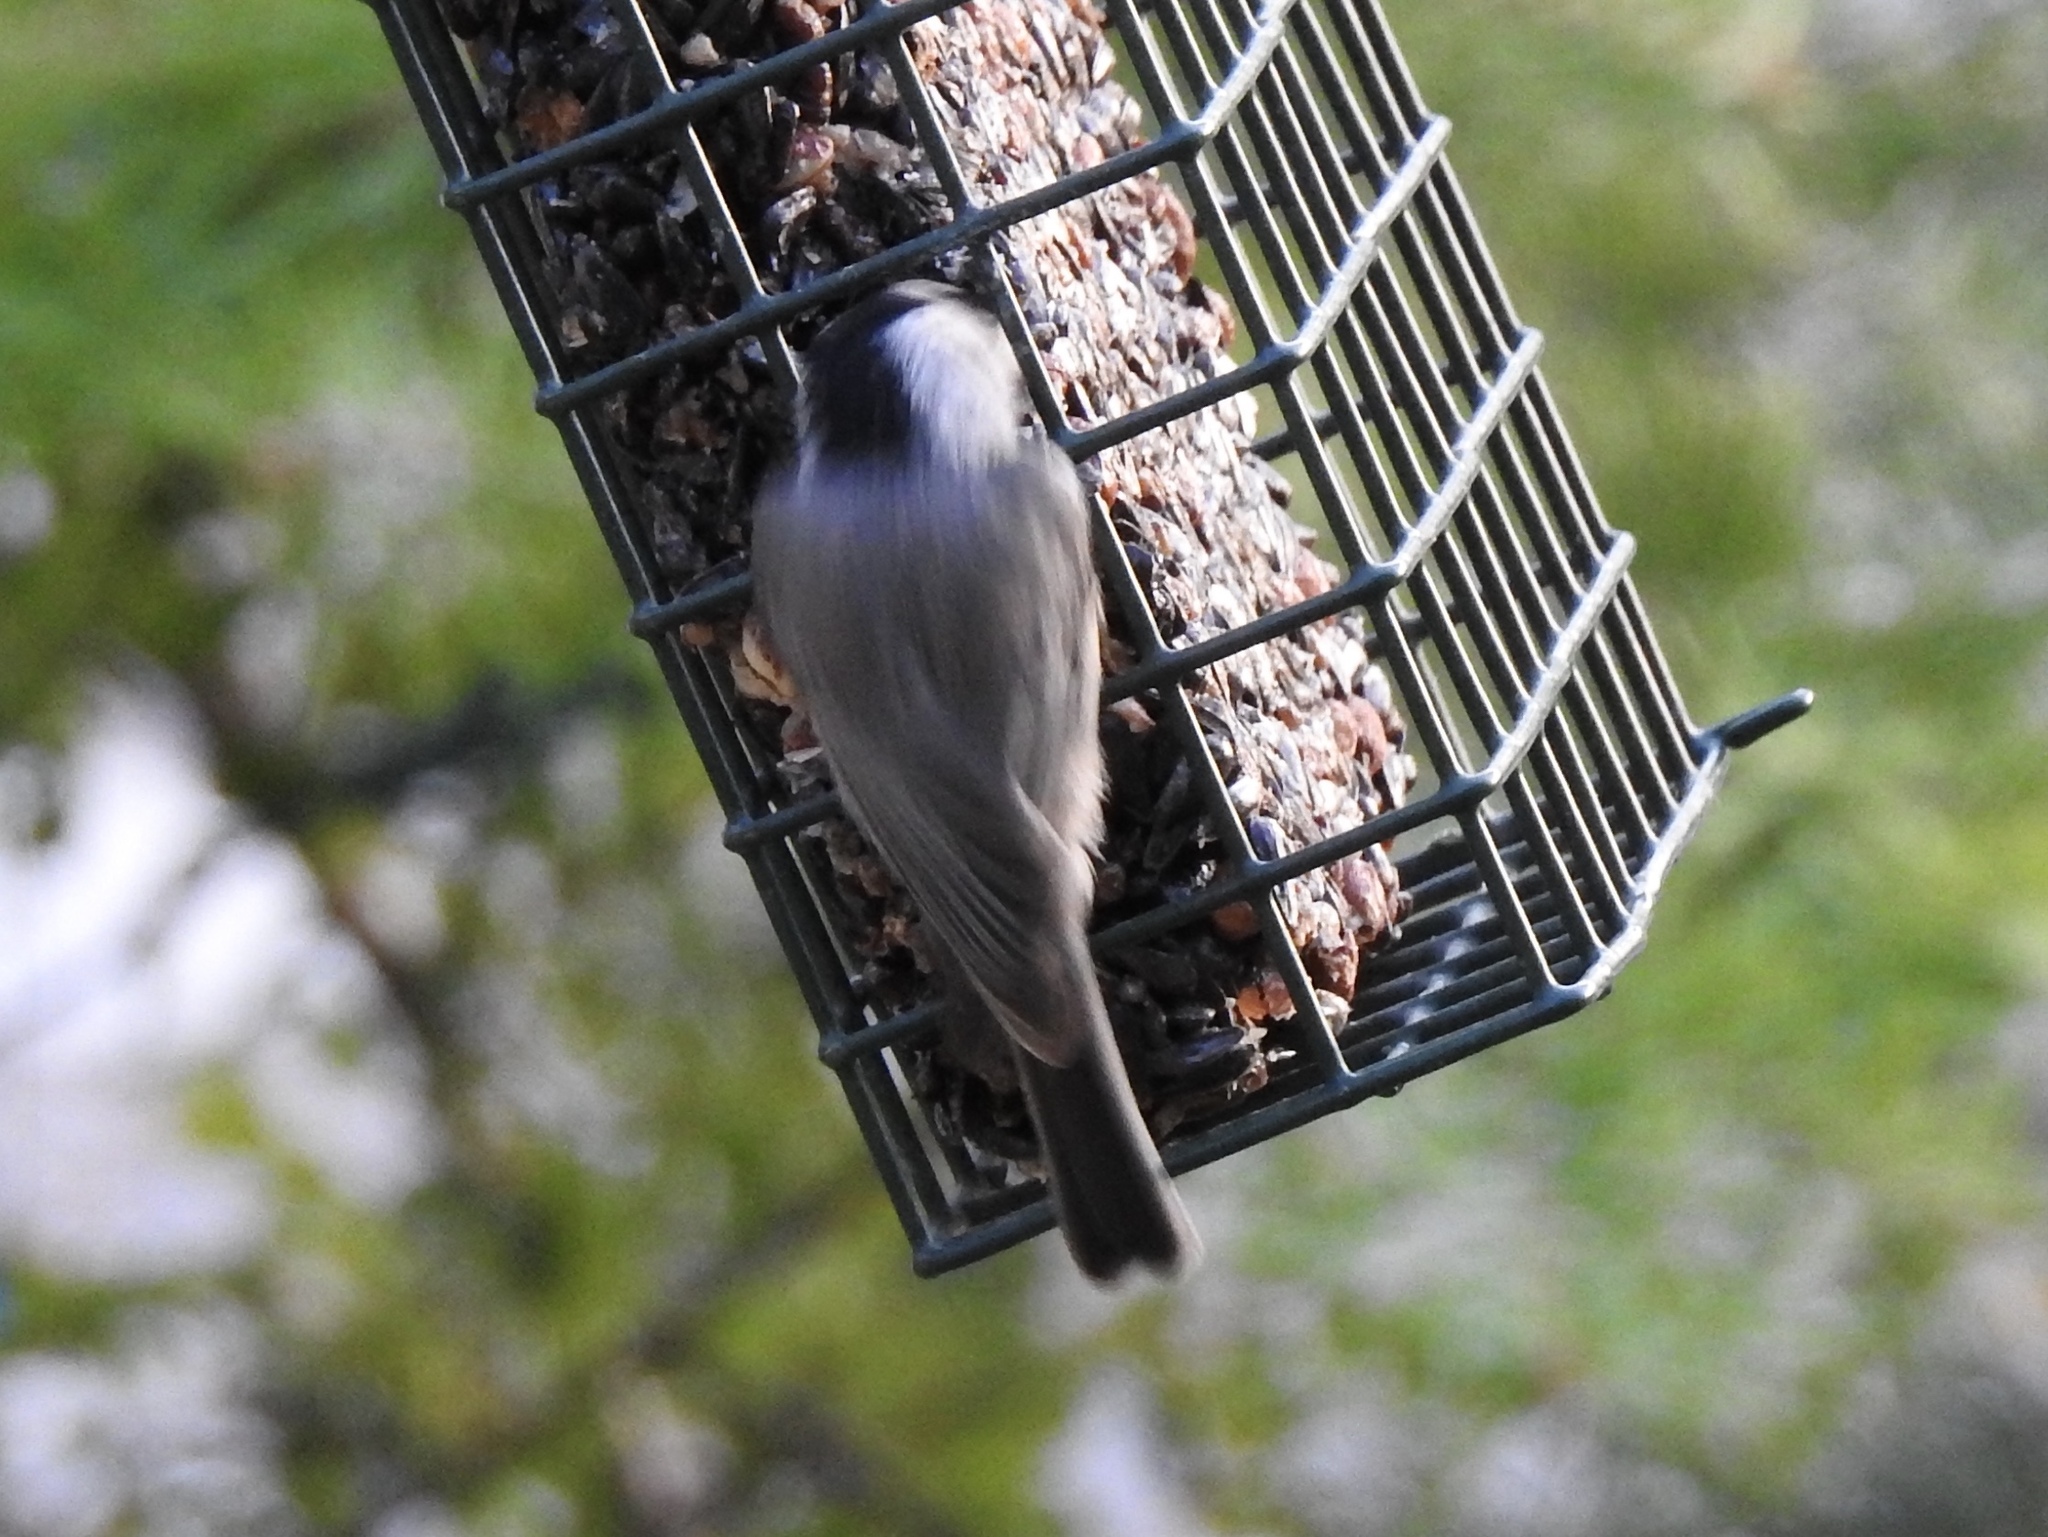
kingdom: Animalia
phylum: Chordata
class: Aves
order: Passeriformes
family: Paridae
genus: Poecile
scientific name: Poecile gambeli
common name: Mountain chickadee
